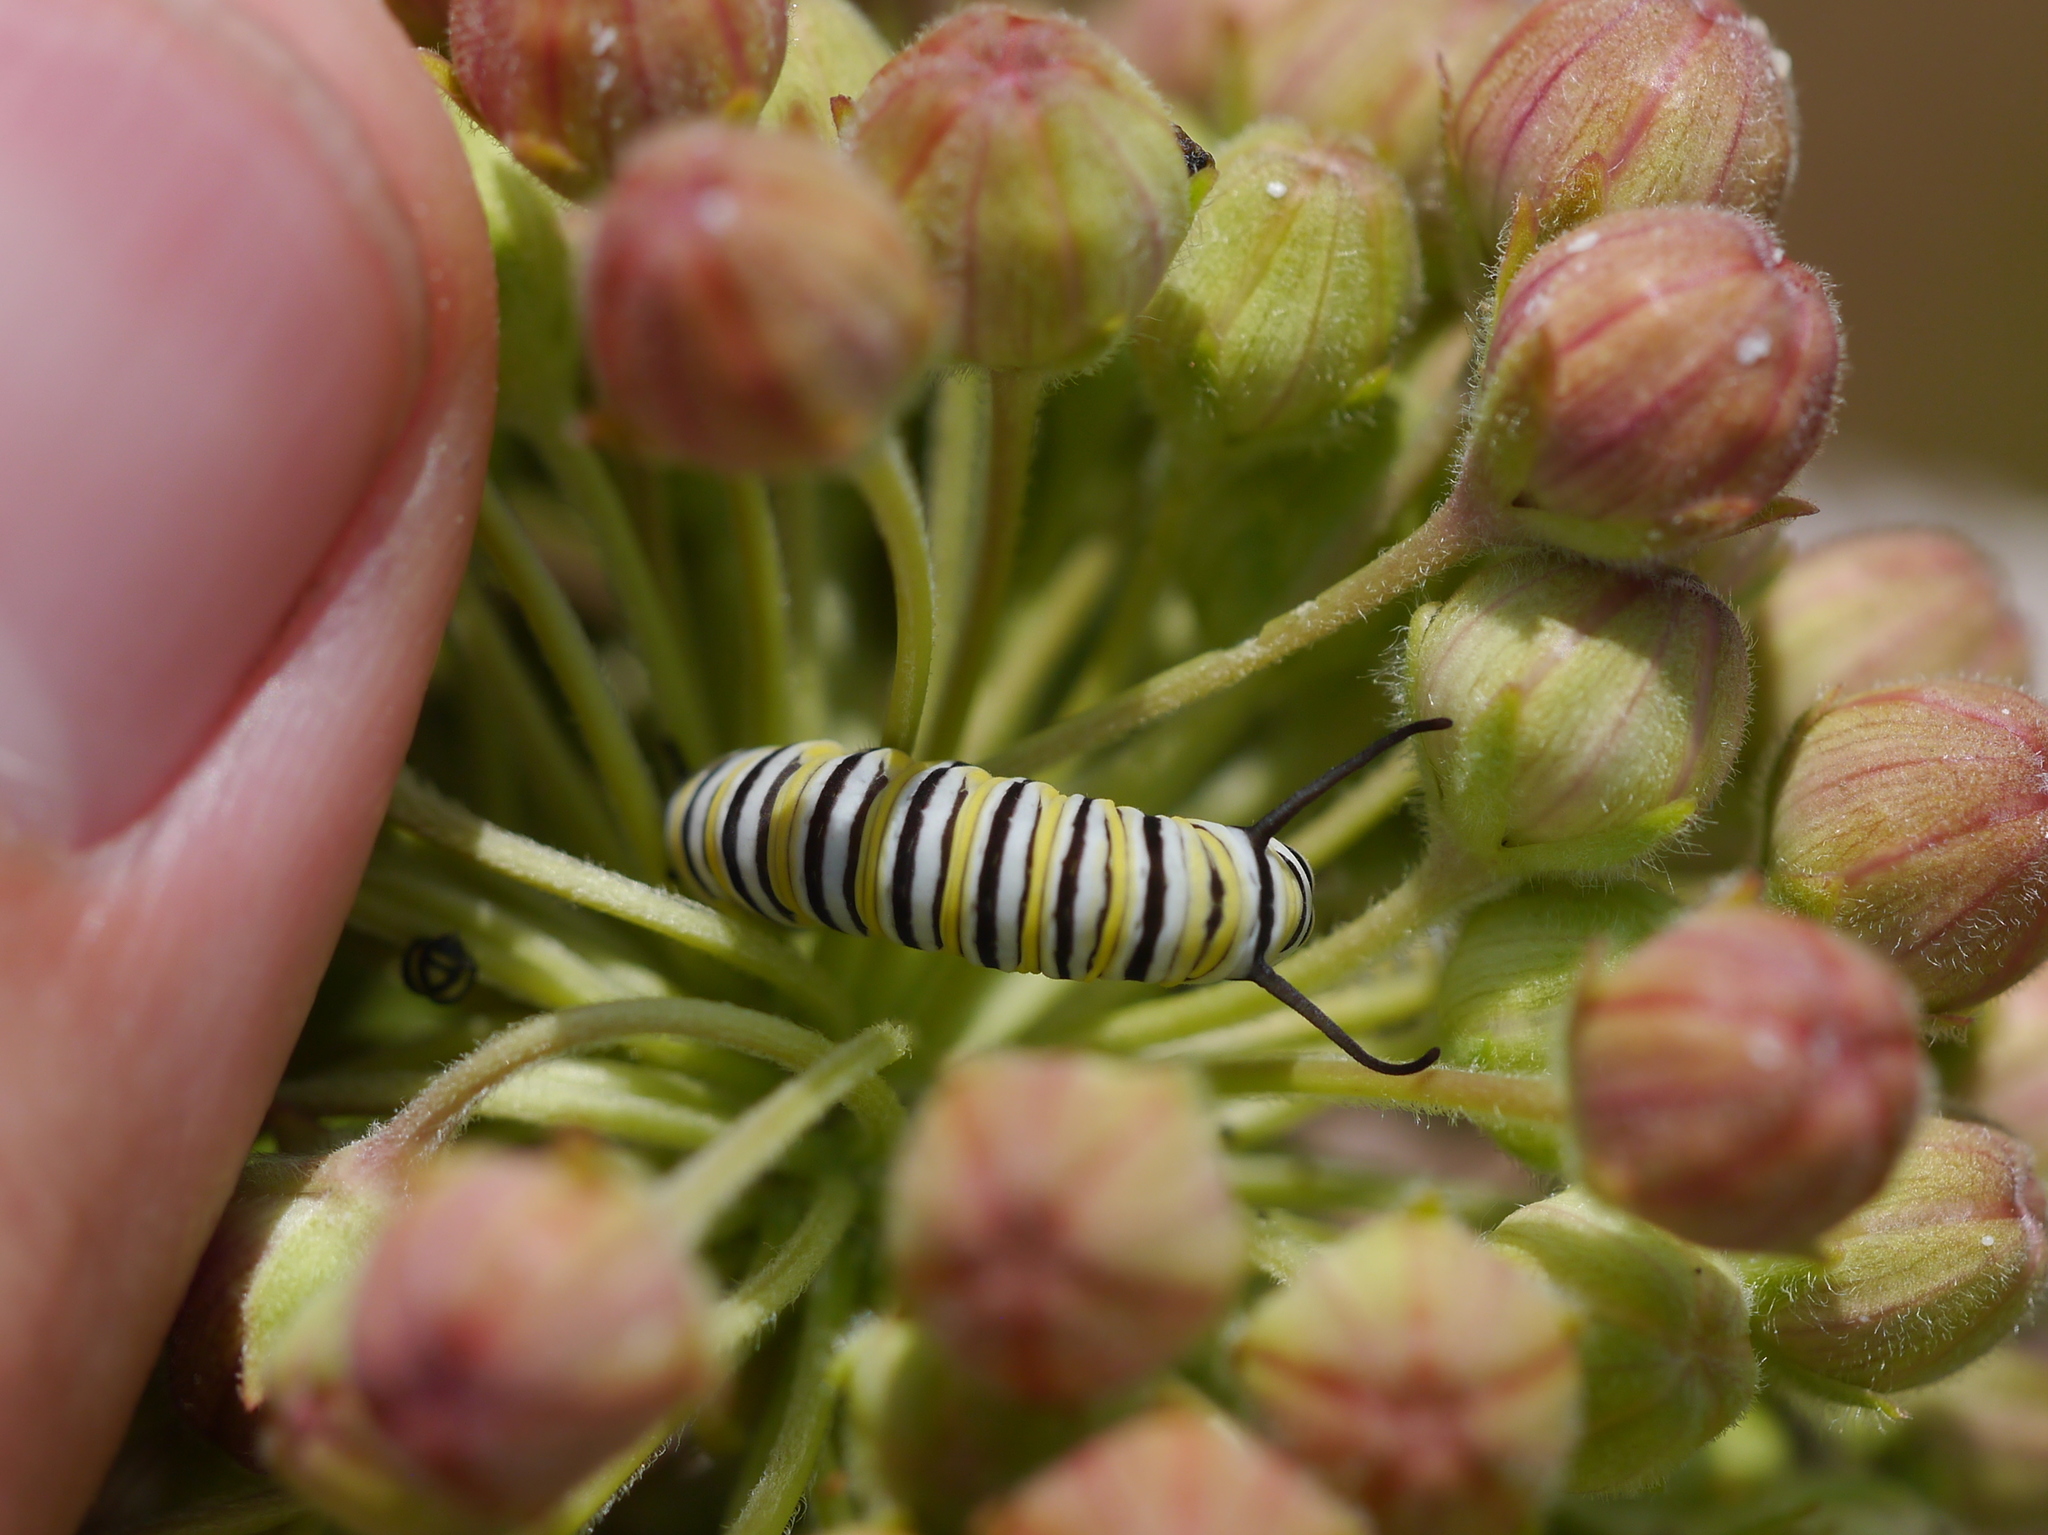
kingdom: Animalia
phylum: Arthropoda
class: Insecta
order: Lepidoptera
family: Nymphalidae
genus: Danaus
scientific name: Danaus plexippus
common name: Monarch
